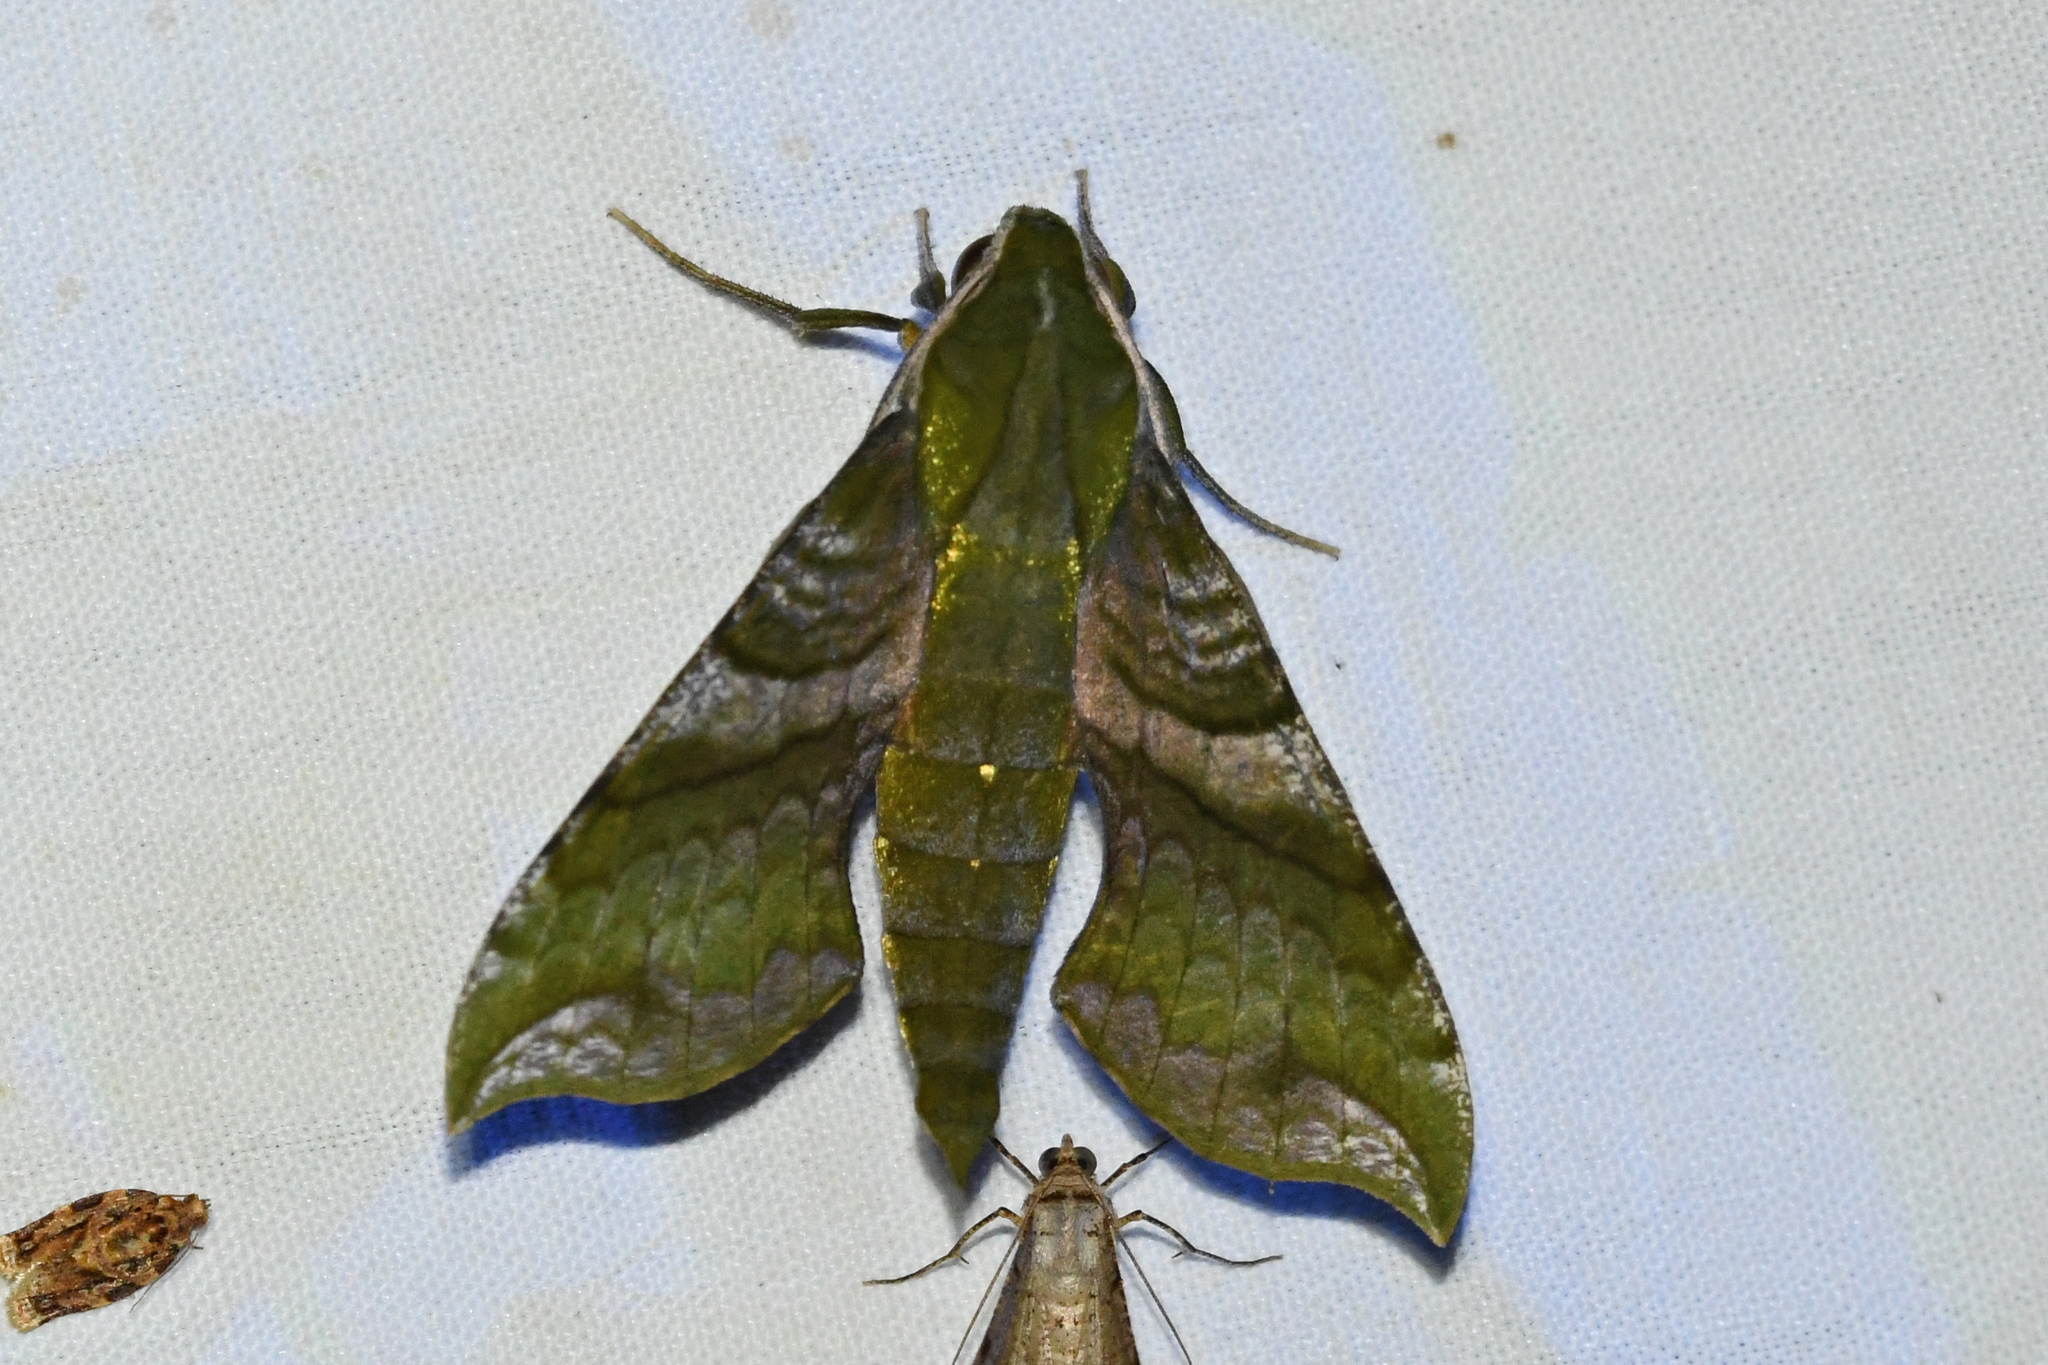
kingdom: Animalia
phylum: Arthropoda
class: Insecta
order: Lepidoptera
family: Sphingidae
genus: Xylophanes
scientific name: Xylophanes pluto
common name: Pluto sphinx
